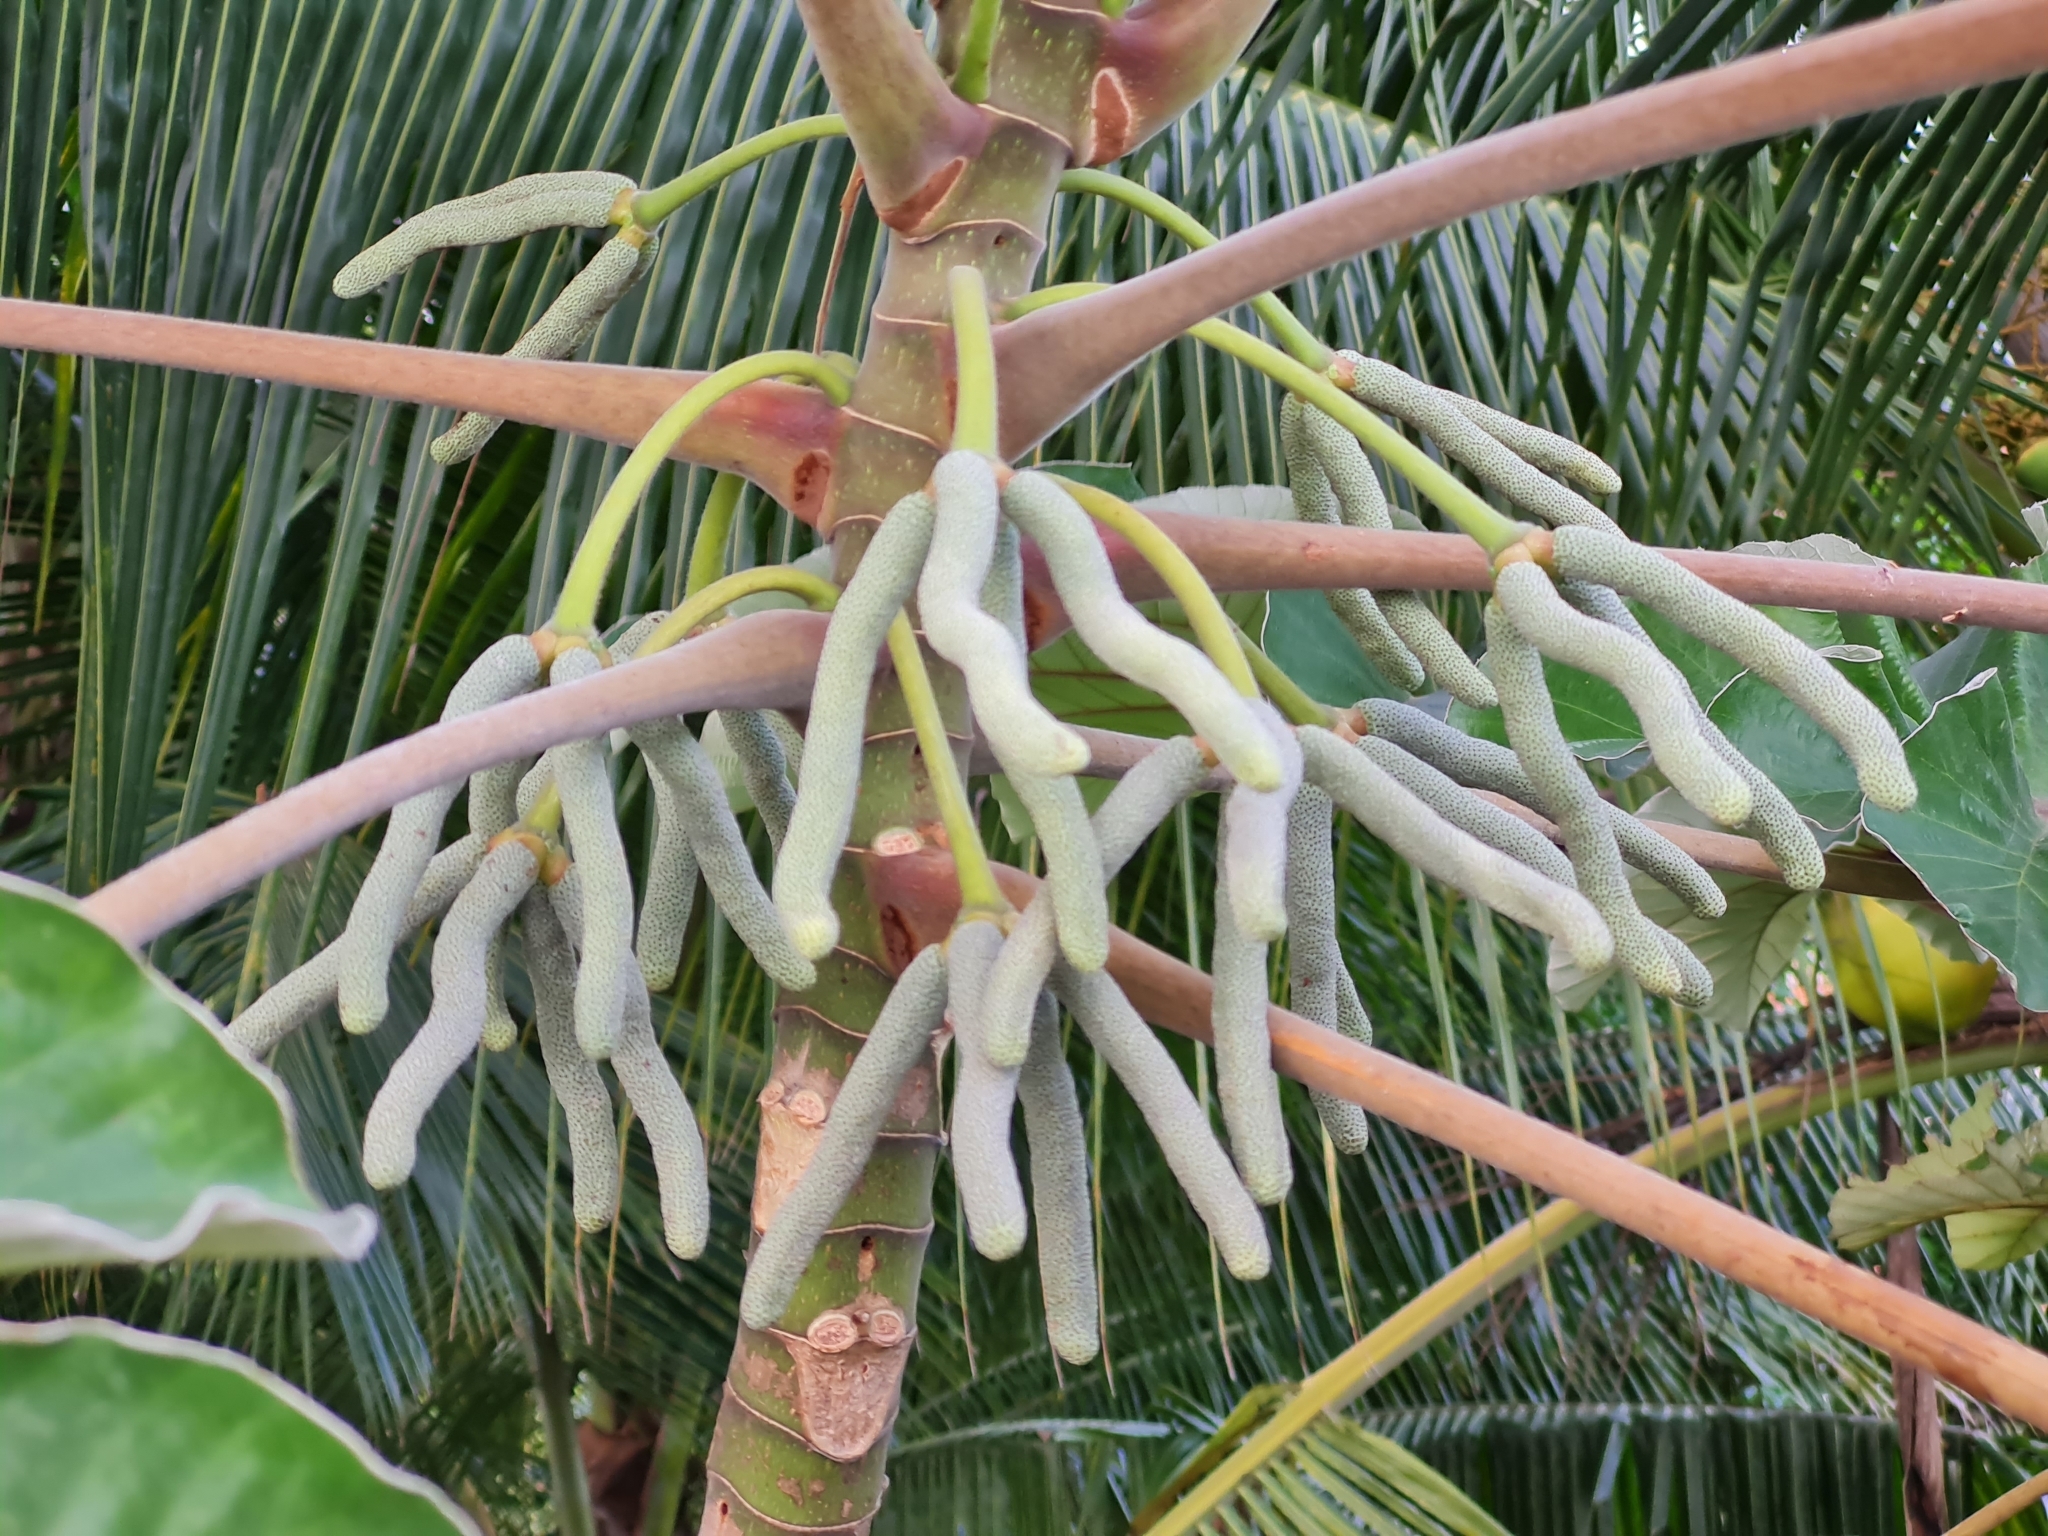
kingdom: Plantae
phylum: Tracheophyta
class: Magnoliopsida
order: Rosales
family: Urticaceae
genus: Cecropia
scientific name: Cecropia peltata
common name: Trumpet-tree
